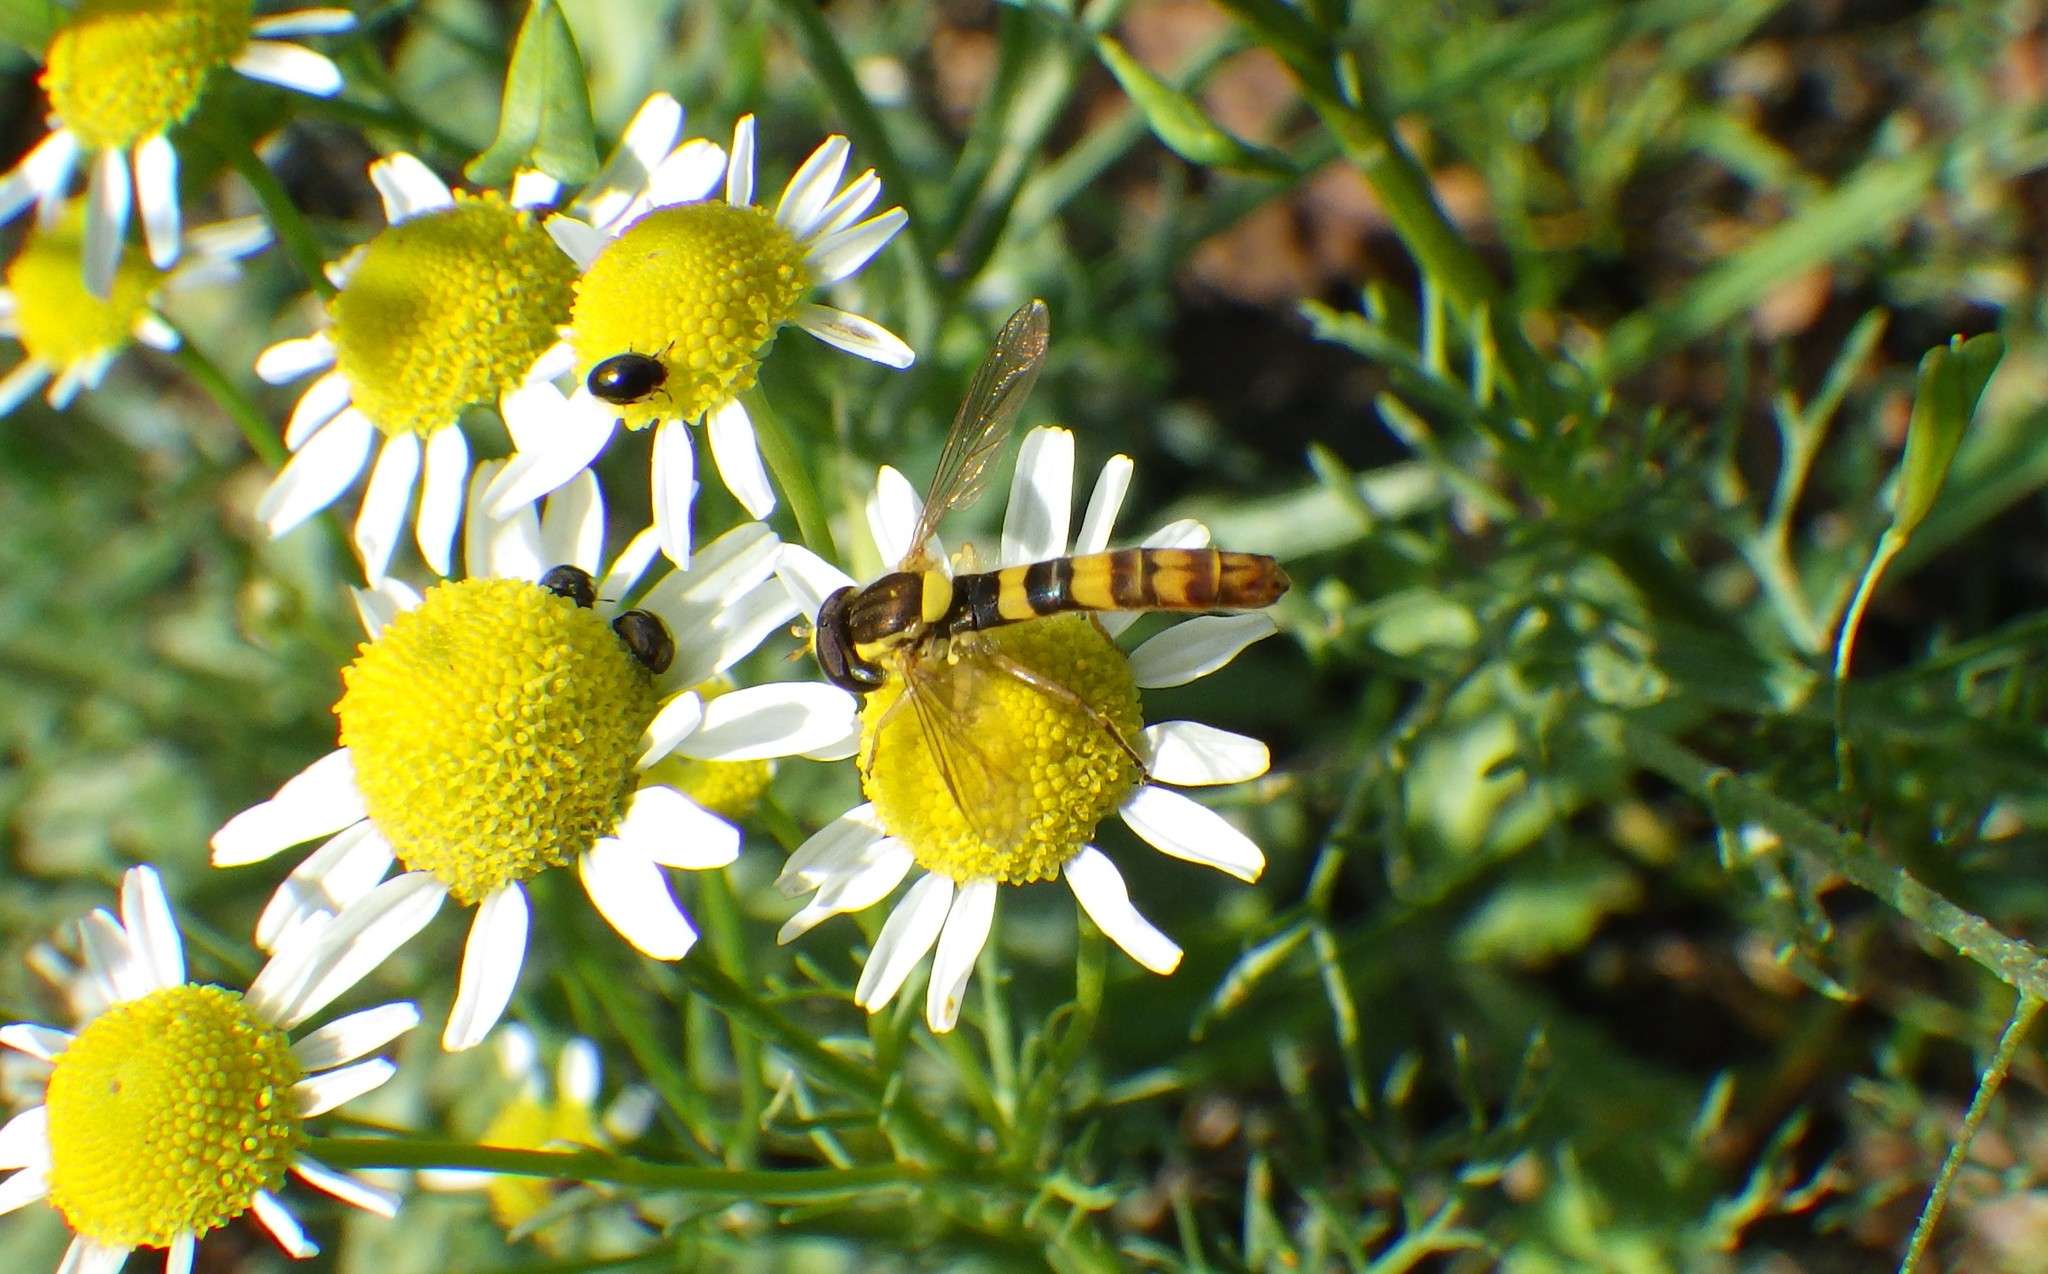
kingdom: Animalia
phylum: Arthropoda
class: Insecta
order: Diptera
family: Syrphidae
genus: Sphaerophoria
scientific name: Sphaerophoria scripta
